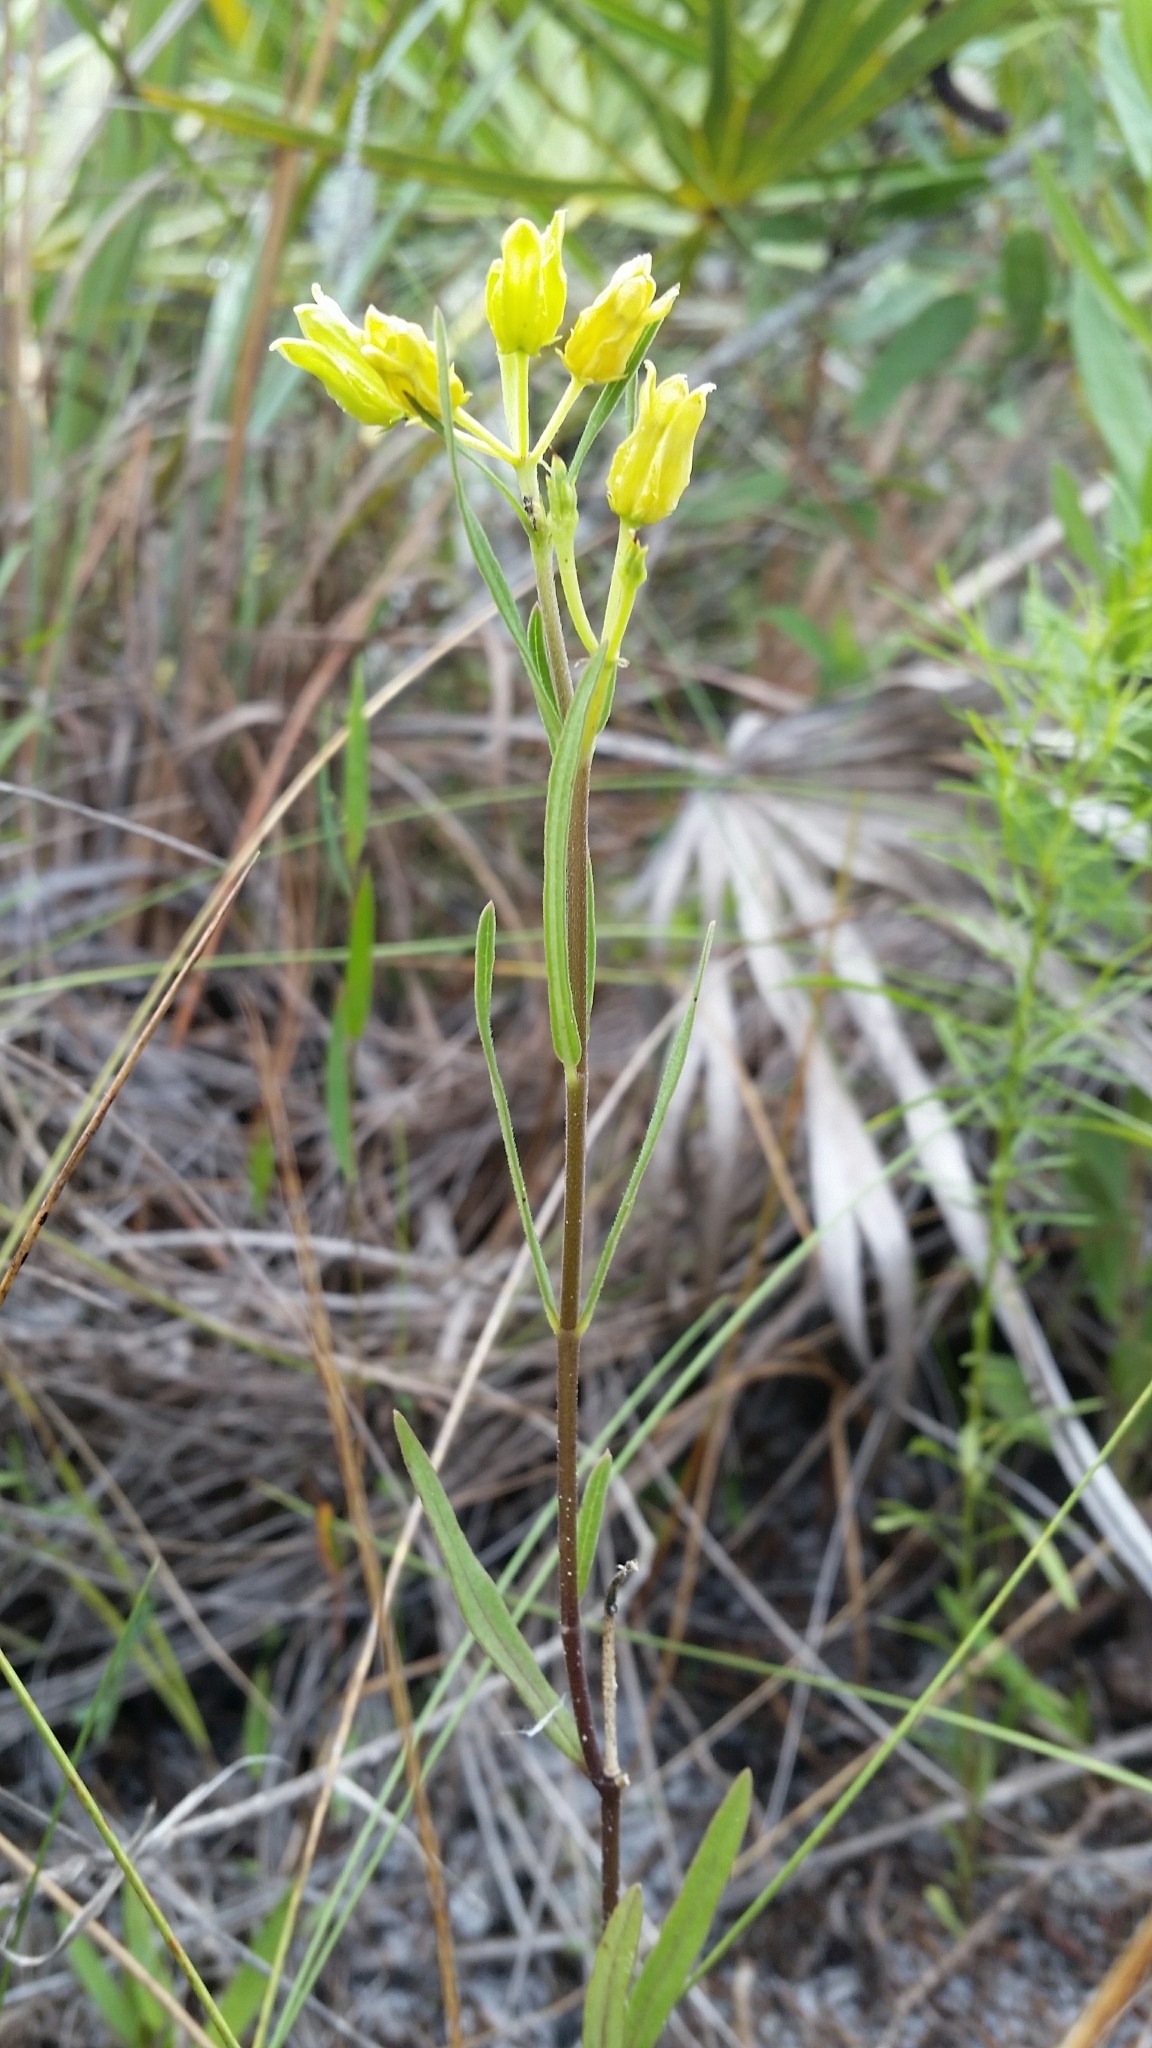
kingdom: Plantae
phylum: Tracheophyta
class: Magnoliopsida
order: Gentianales
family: Apocynaceae
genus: Asclepias
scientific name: Asclepias pedicellata
